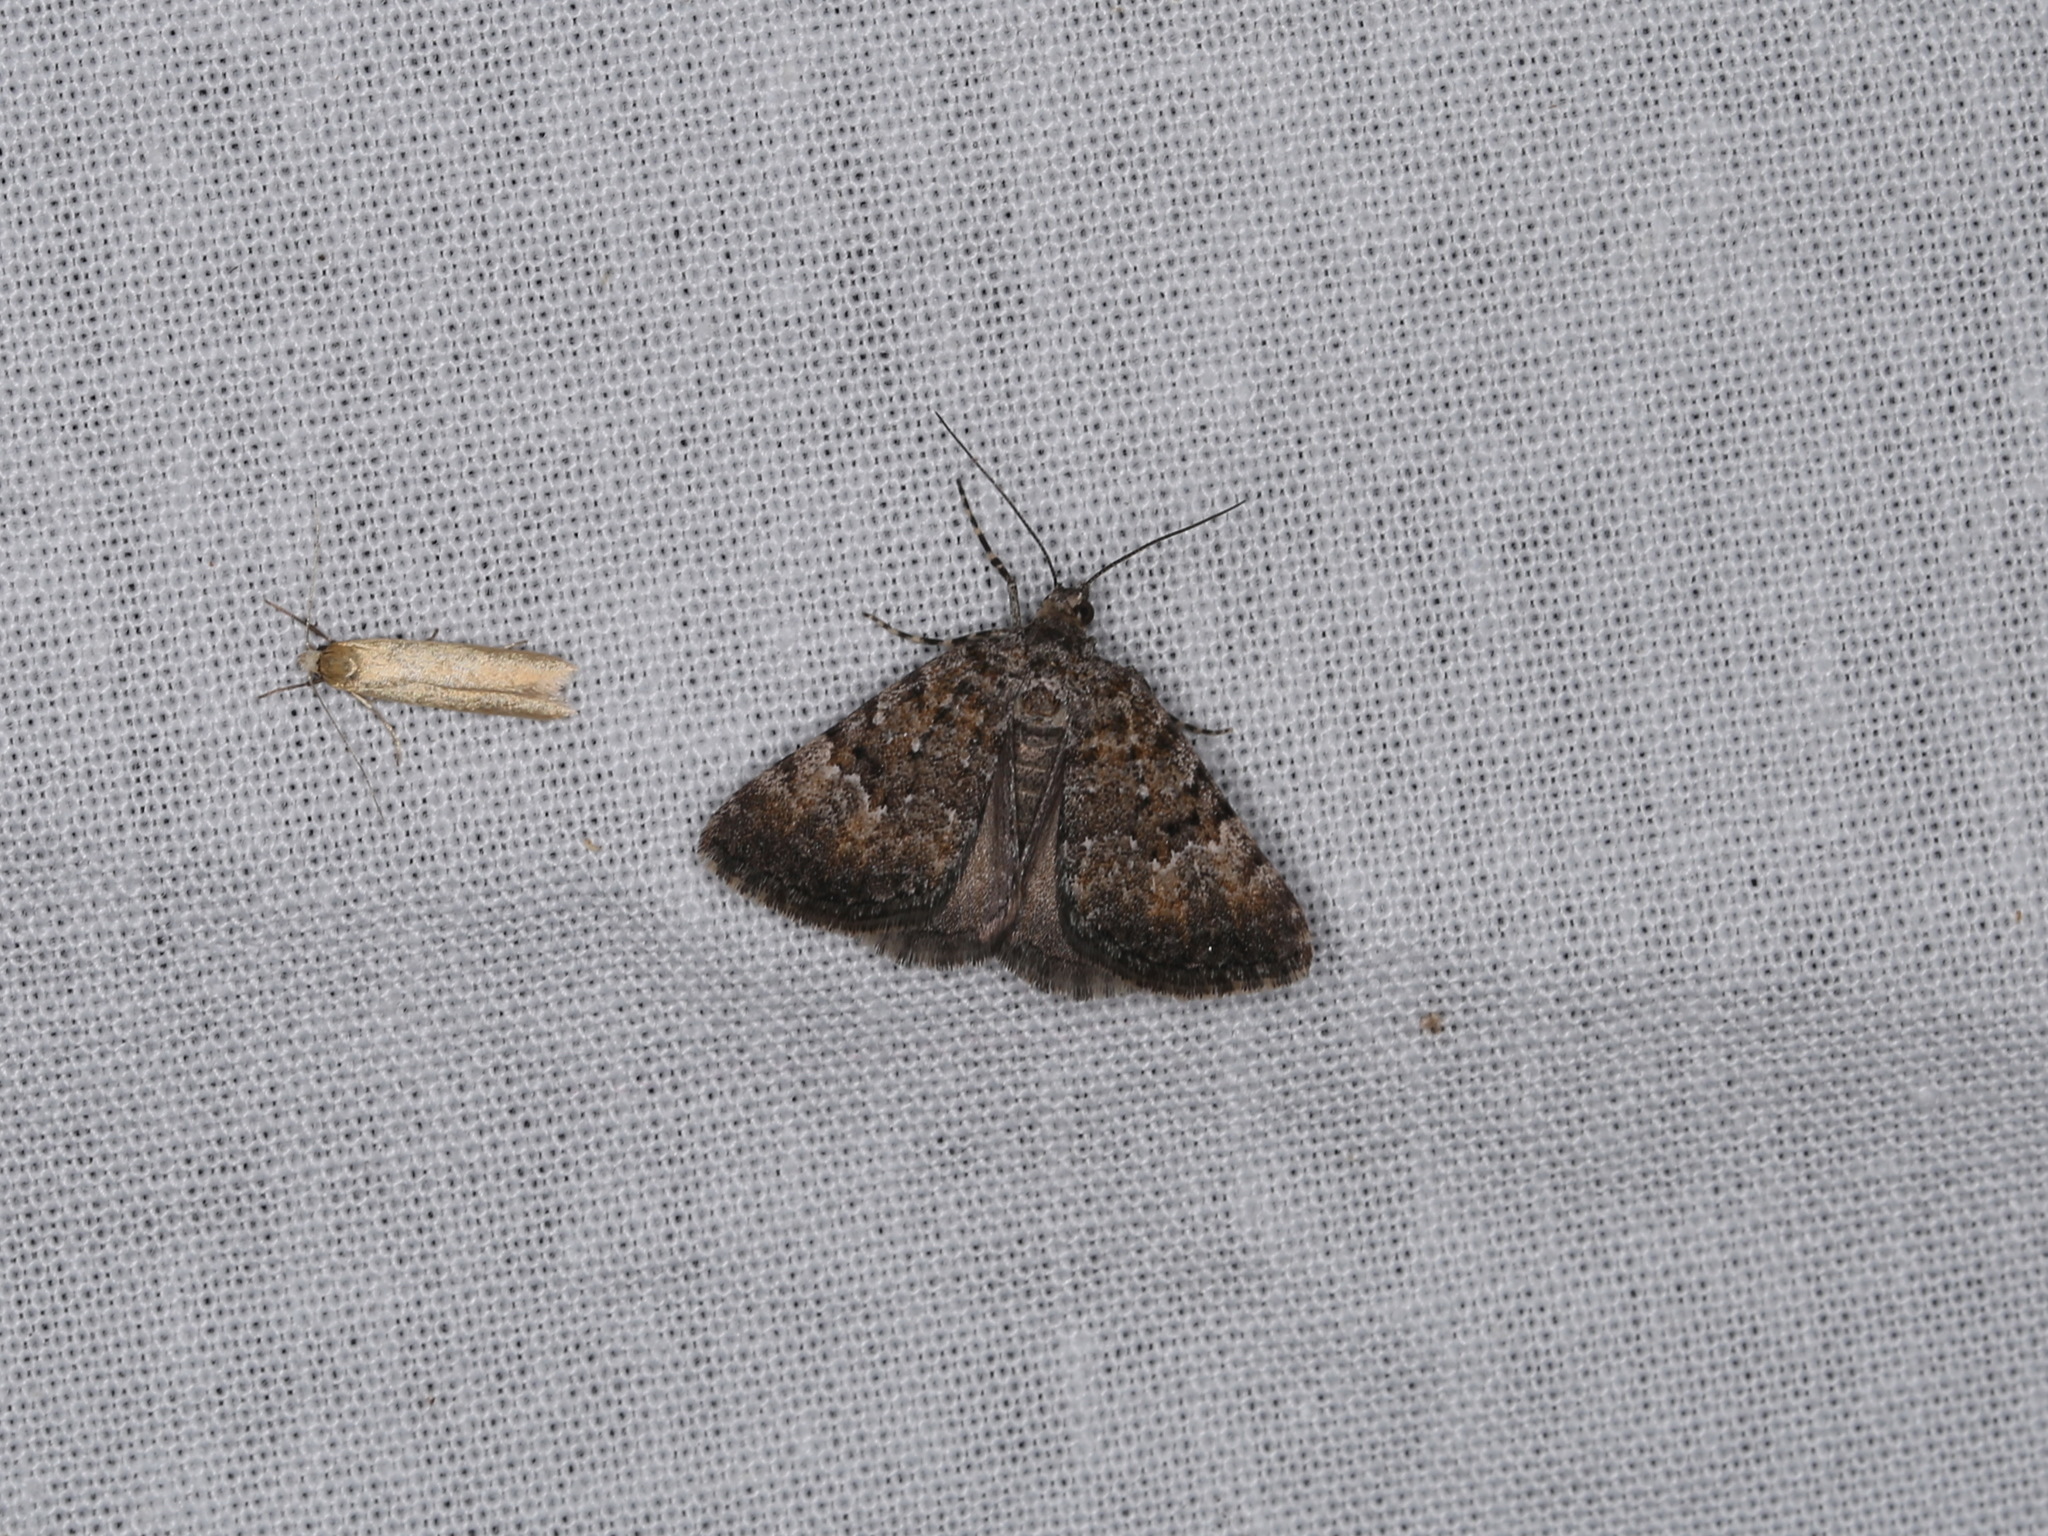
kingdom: Animalia
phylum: Arthropoda
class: Insecta
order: Lepidoptera
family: Geometridae
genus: Dichromodes
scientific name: Dichromodes semicanescens
